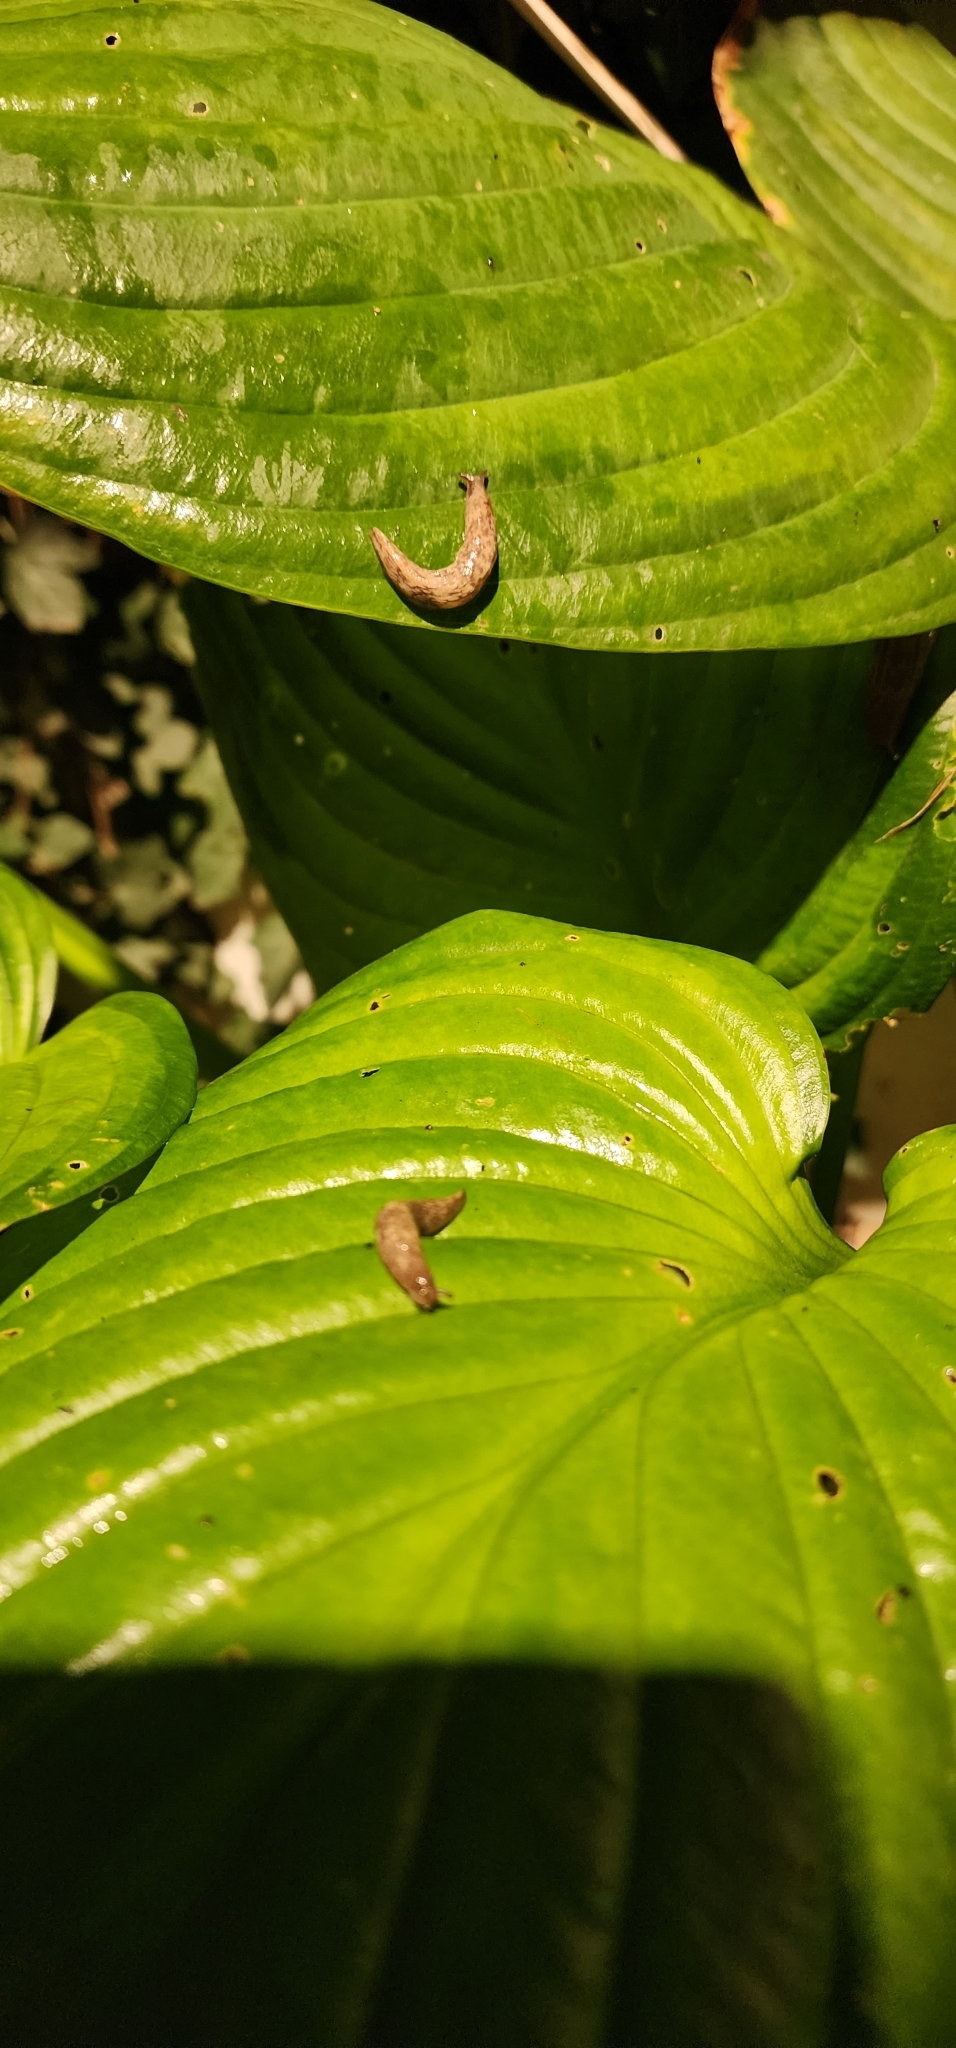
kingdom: Animalia
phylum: Mollusca
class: Gastropoda
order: Stylommatophora
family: Agriolimacidae
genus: Deroceras
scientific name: Deroceras reticulatum
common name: Gray field slug
